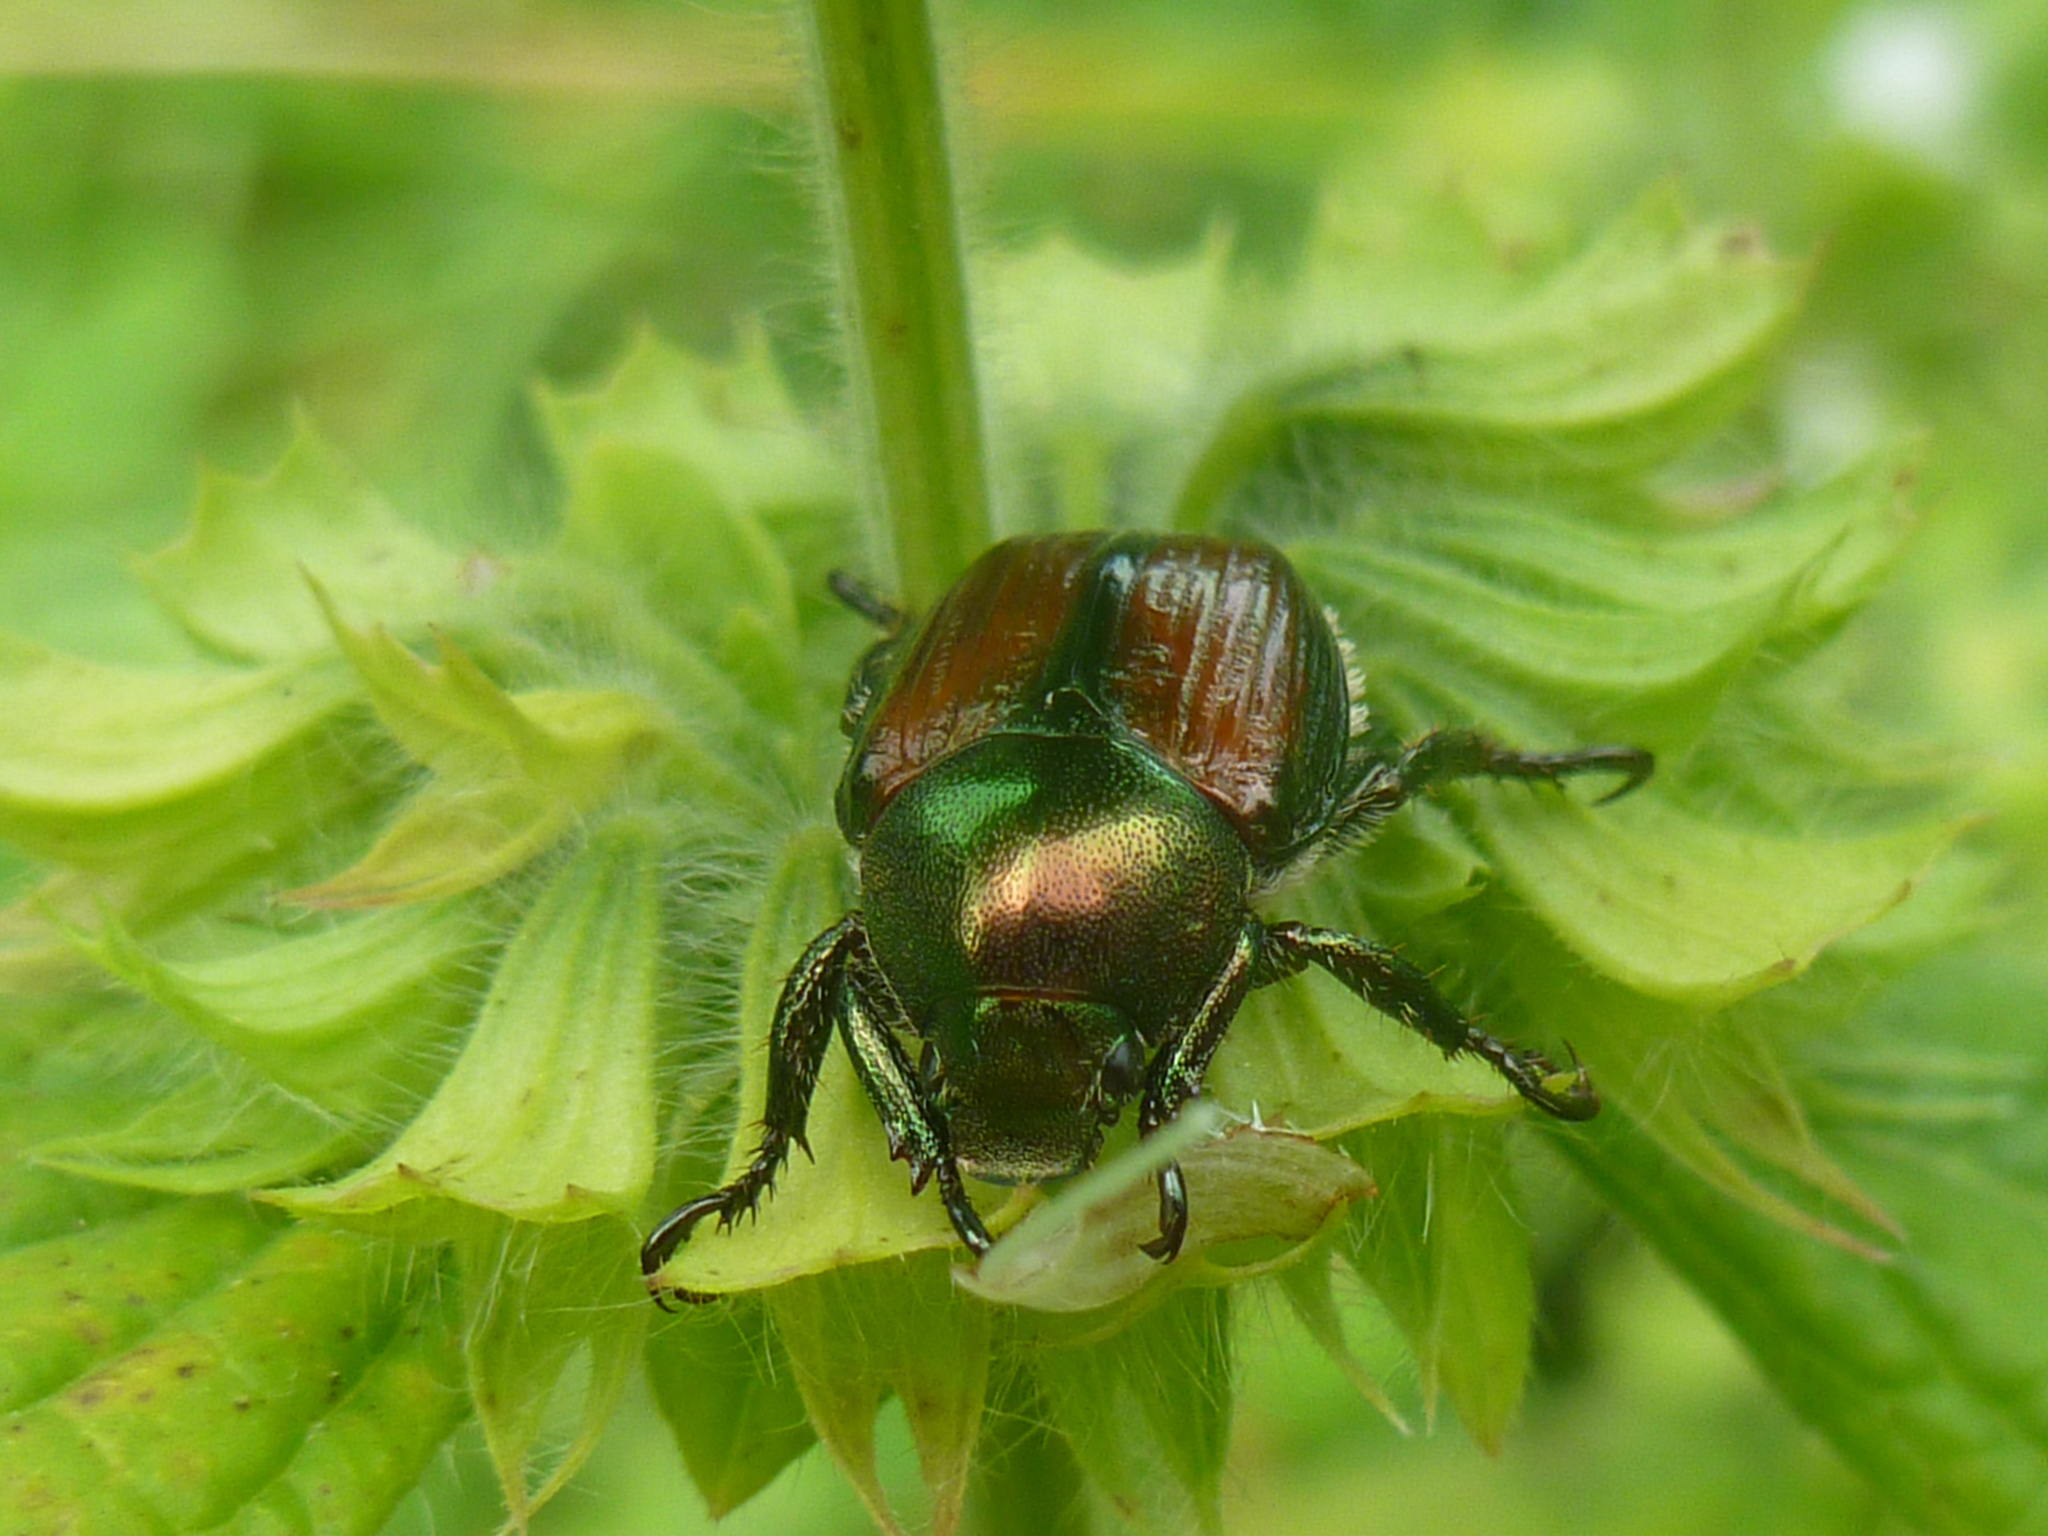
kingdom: Animalia
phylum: Arthropoda
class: Insecta
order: Coleoptera
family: Scarabaeidae
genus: Popillia
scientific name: Popillia japonica
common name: Japanese beetle
